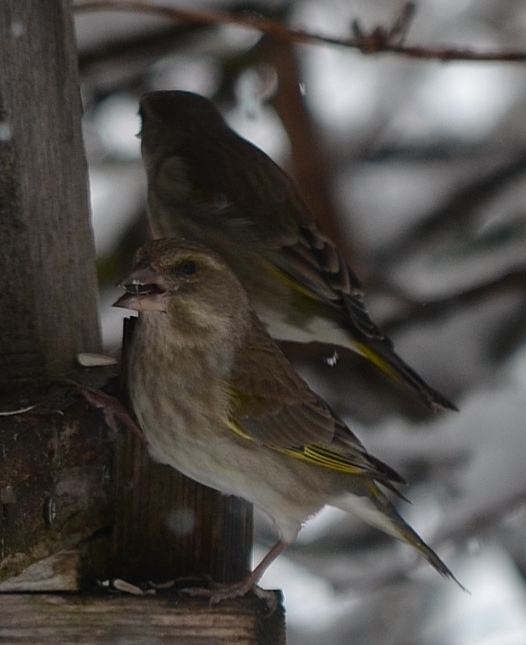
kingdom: Plantae
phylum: Tracheophyta
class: Liliopsida
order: Poales
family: Poaceae
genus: Chloris
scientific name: Chloris chloris
